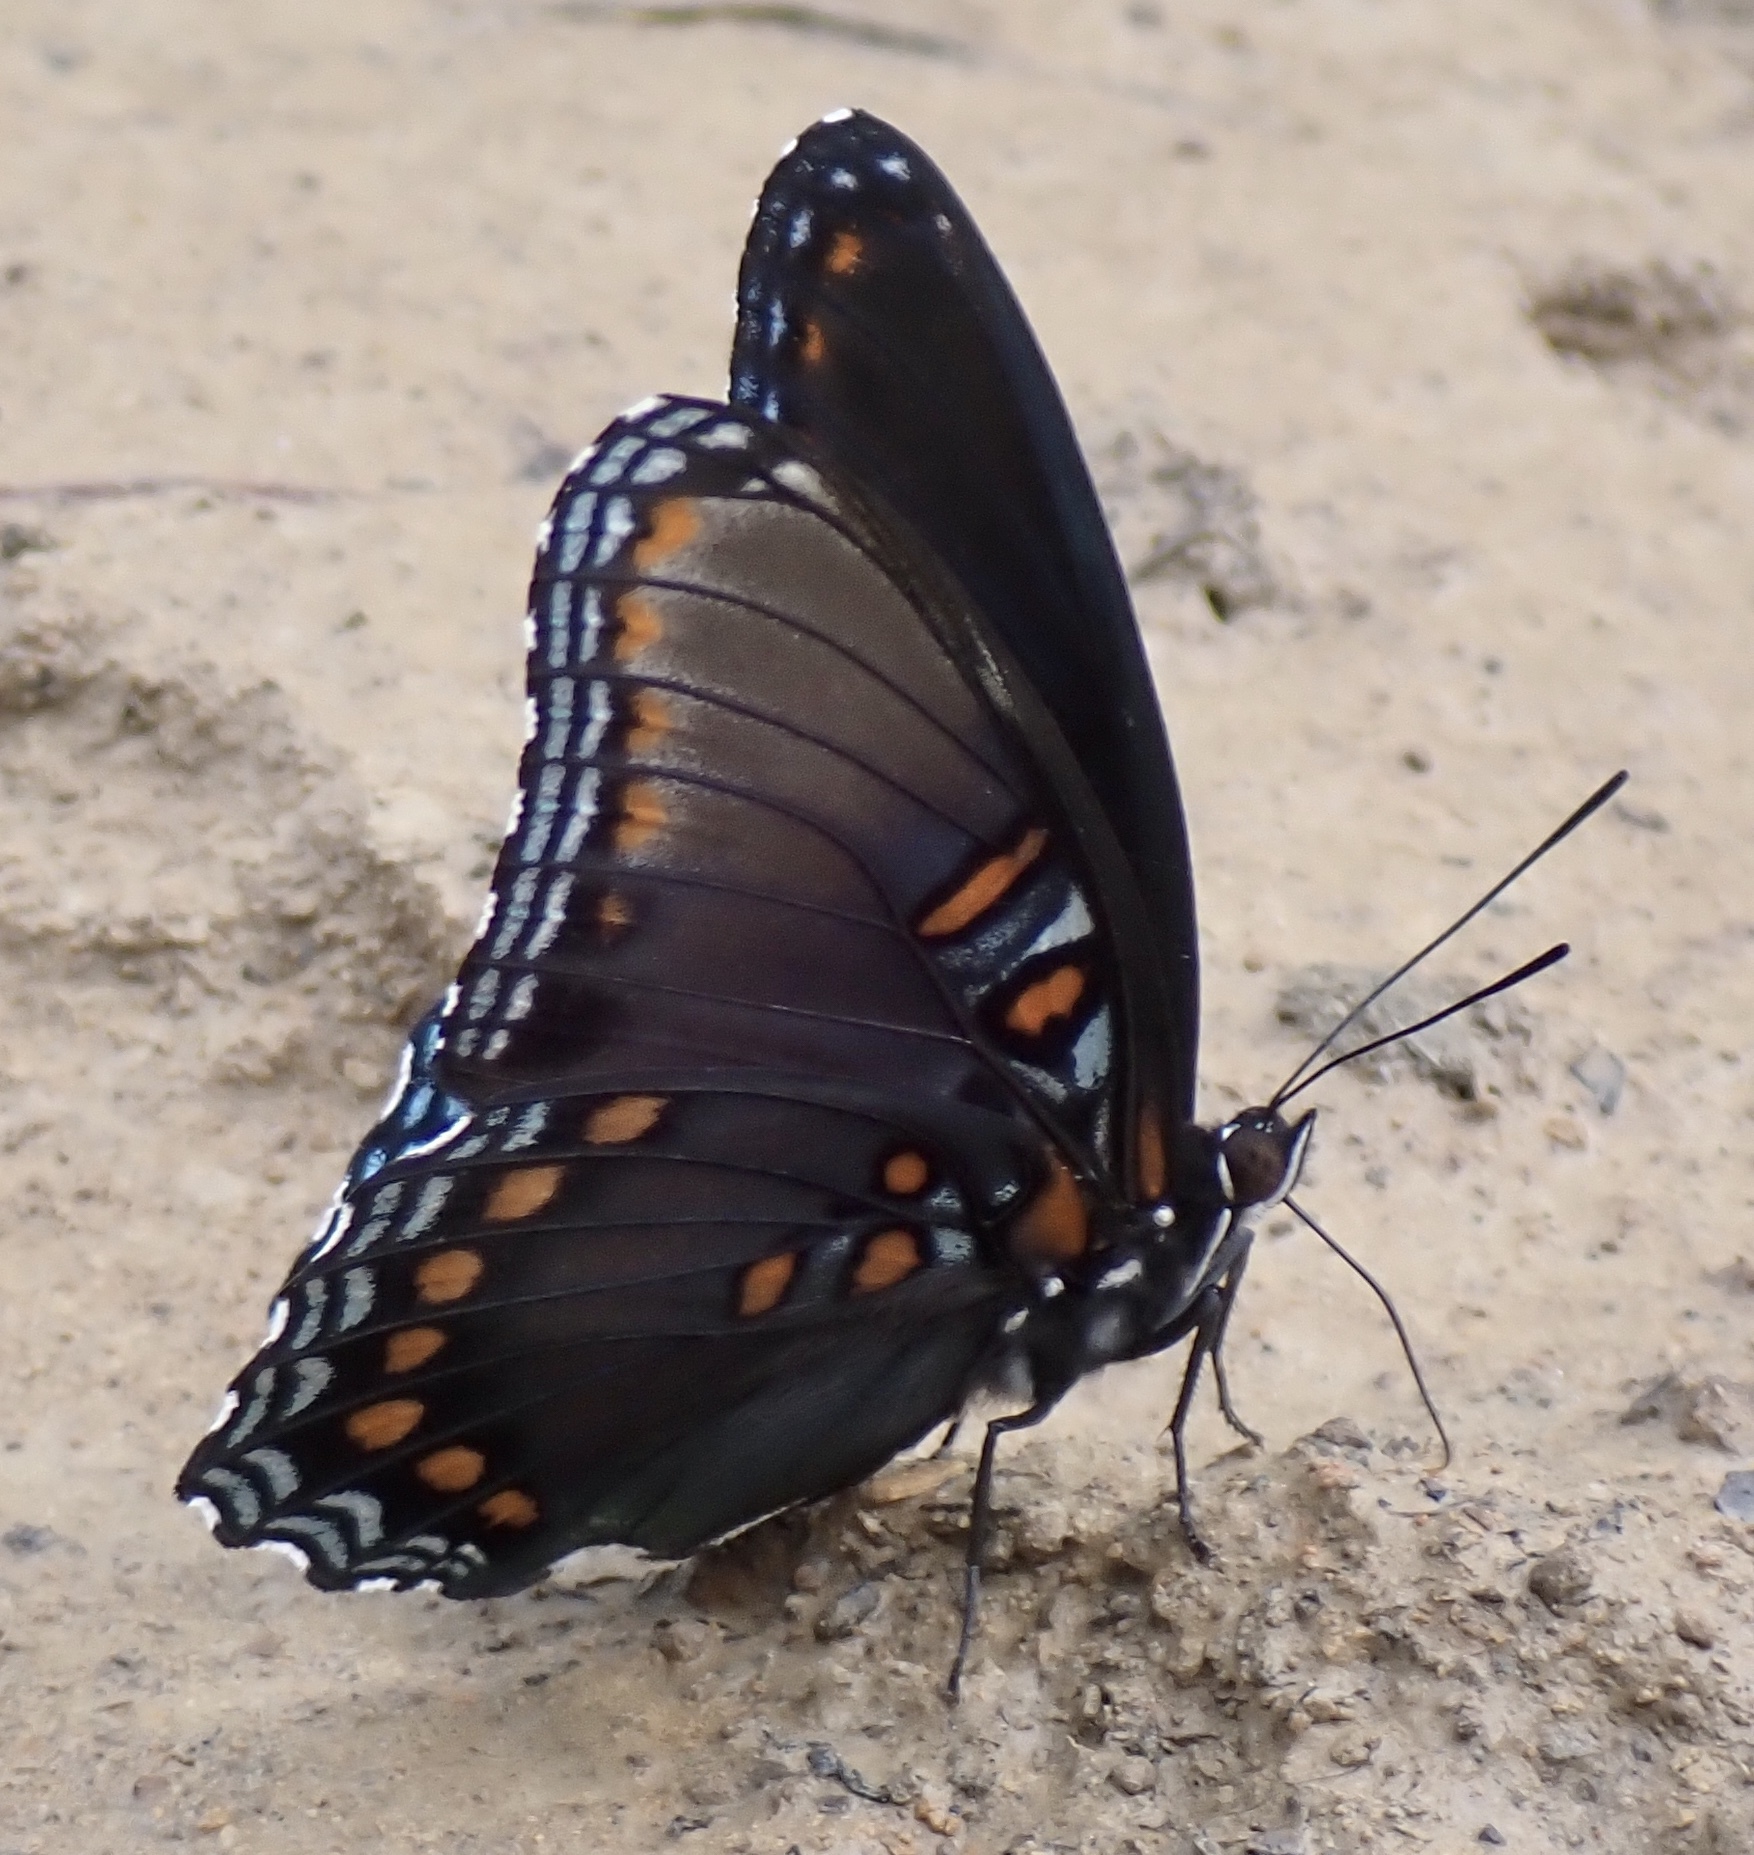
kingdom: Animalia
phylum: Arthropoda
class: Insecta
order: Lepidoptera
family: Nymphalidae
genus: Limenitis
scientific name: Limenitis astyanax
